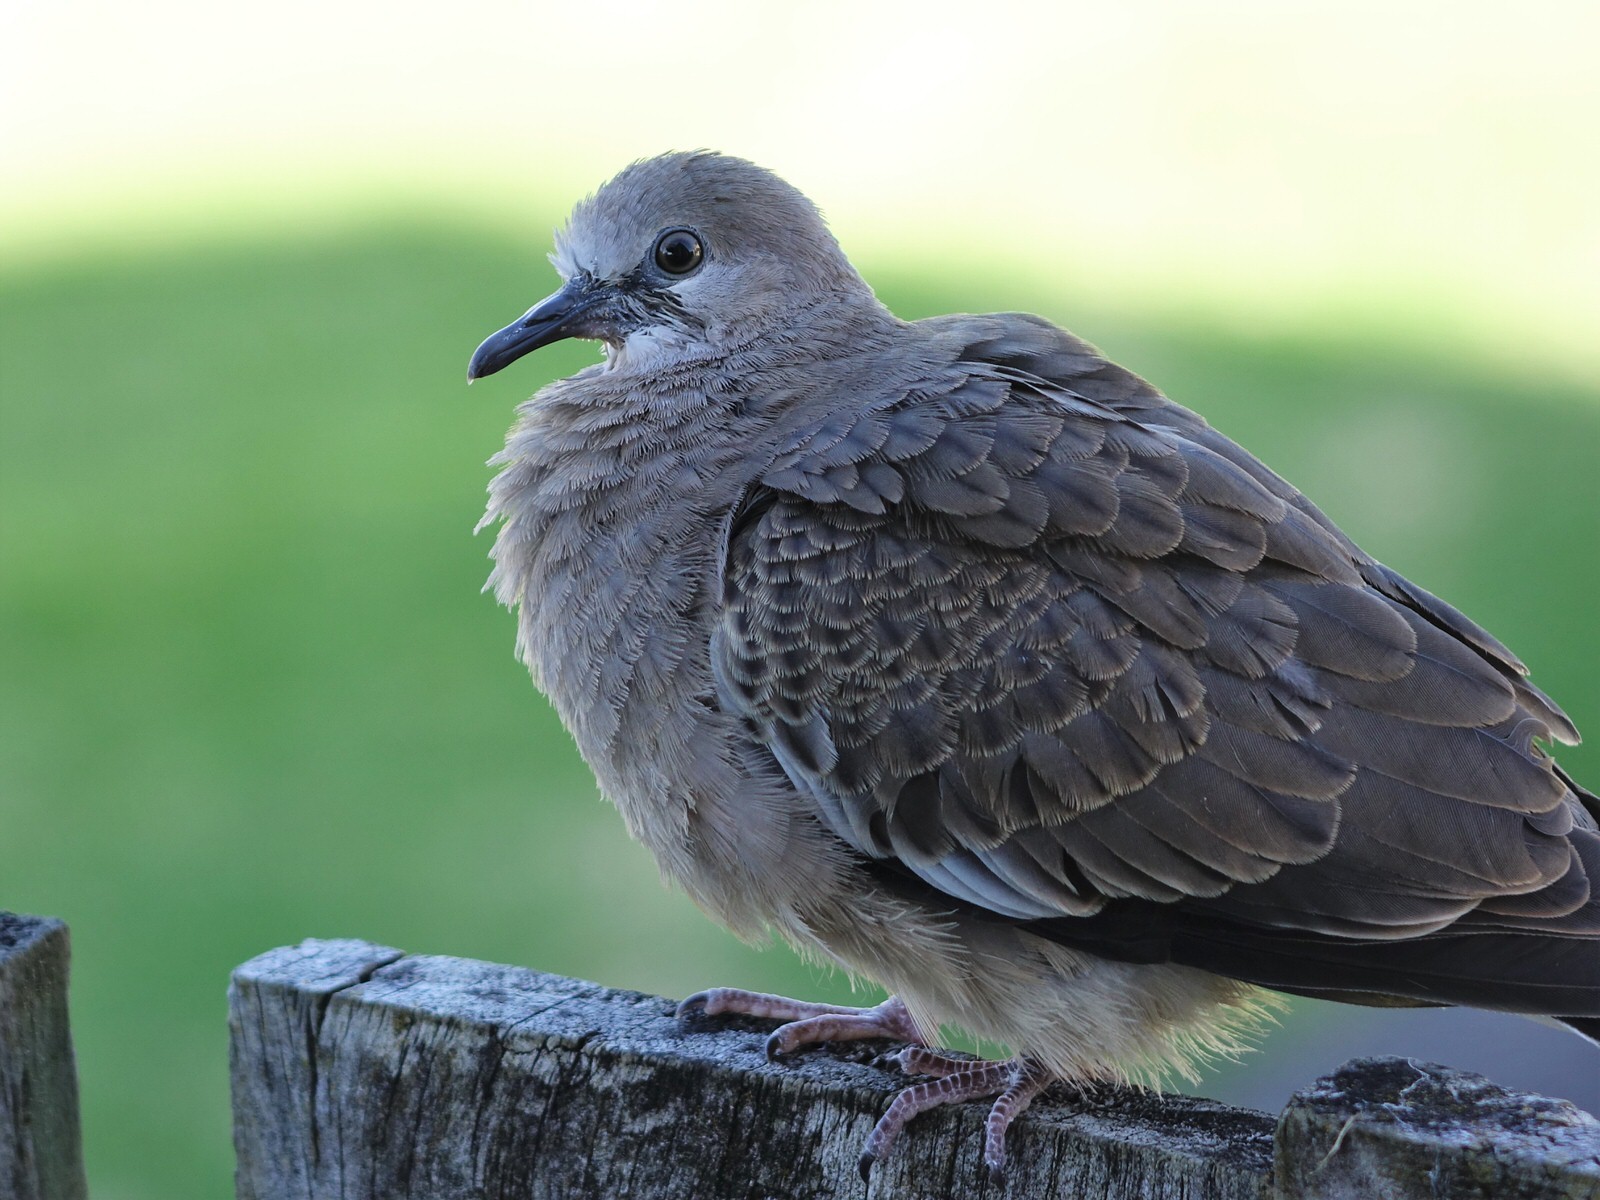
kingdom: Animalia
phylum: Chordata
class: Aves
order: Columbiformes
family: Columbidae
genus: Spilopelia
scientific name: Spilopelia chinensis
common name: Spotted dove
